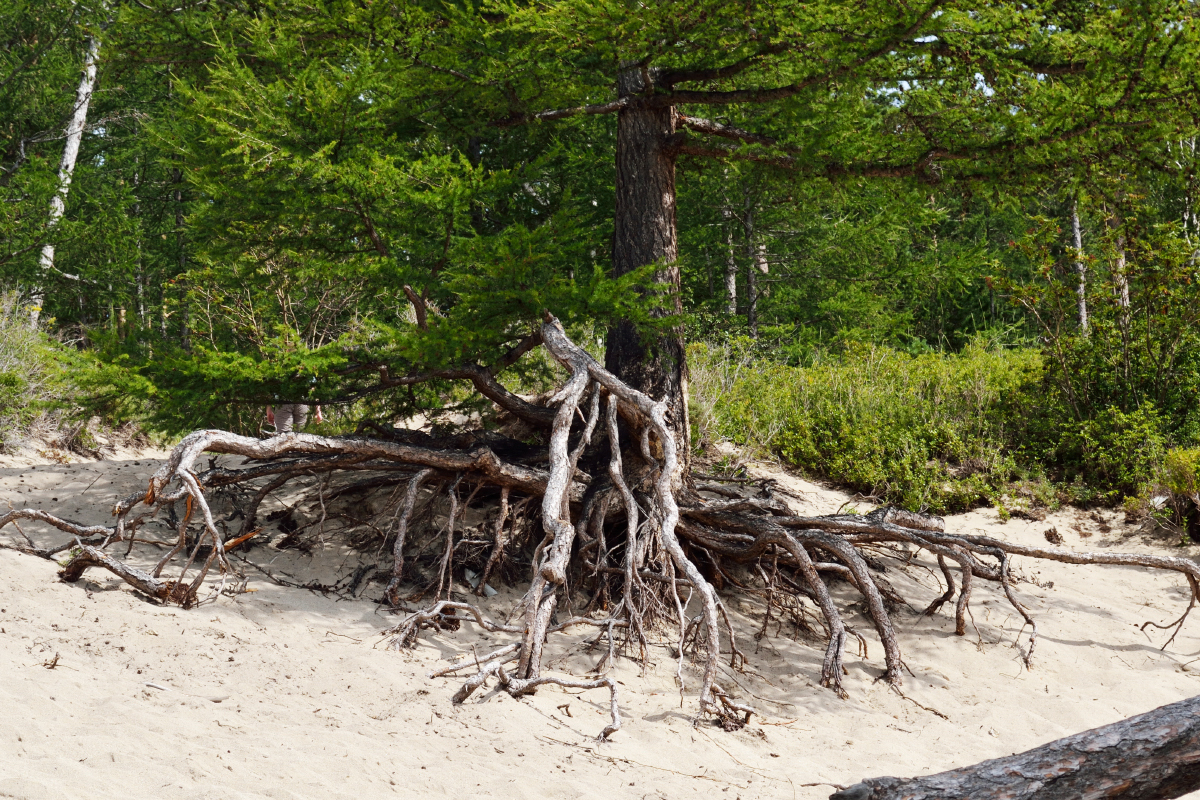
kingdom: Plantae
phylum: Tracheophyta
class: Pinopsida
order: Pinales
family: Pinaceae
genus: Larix
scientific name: Larix sibirica
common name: Siberian larch
